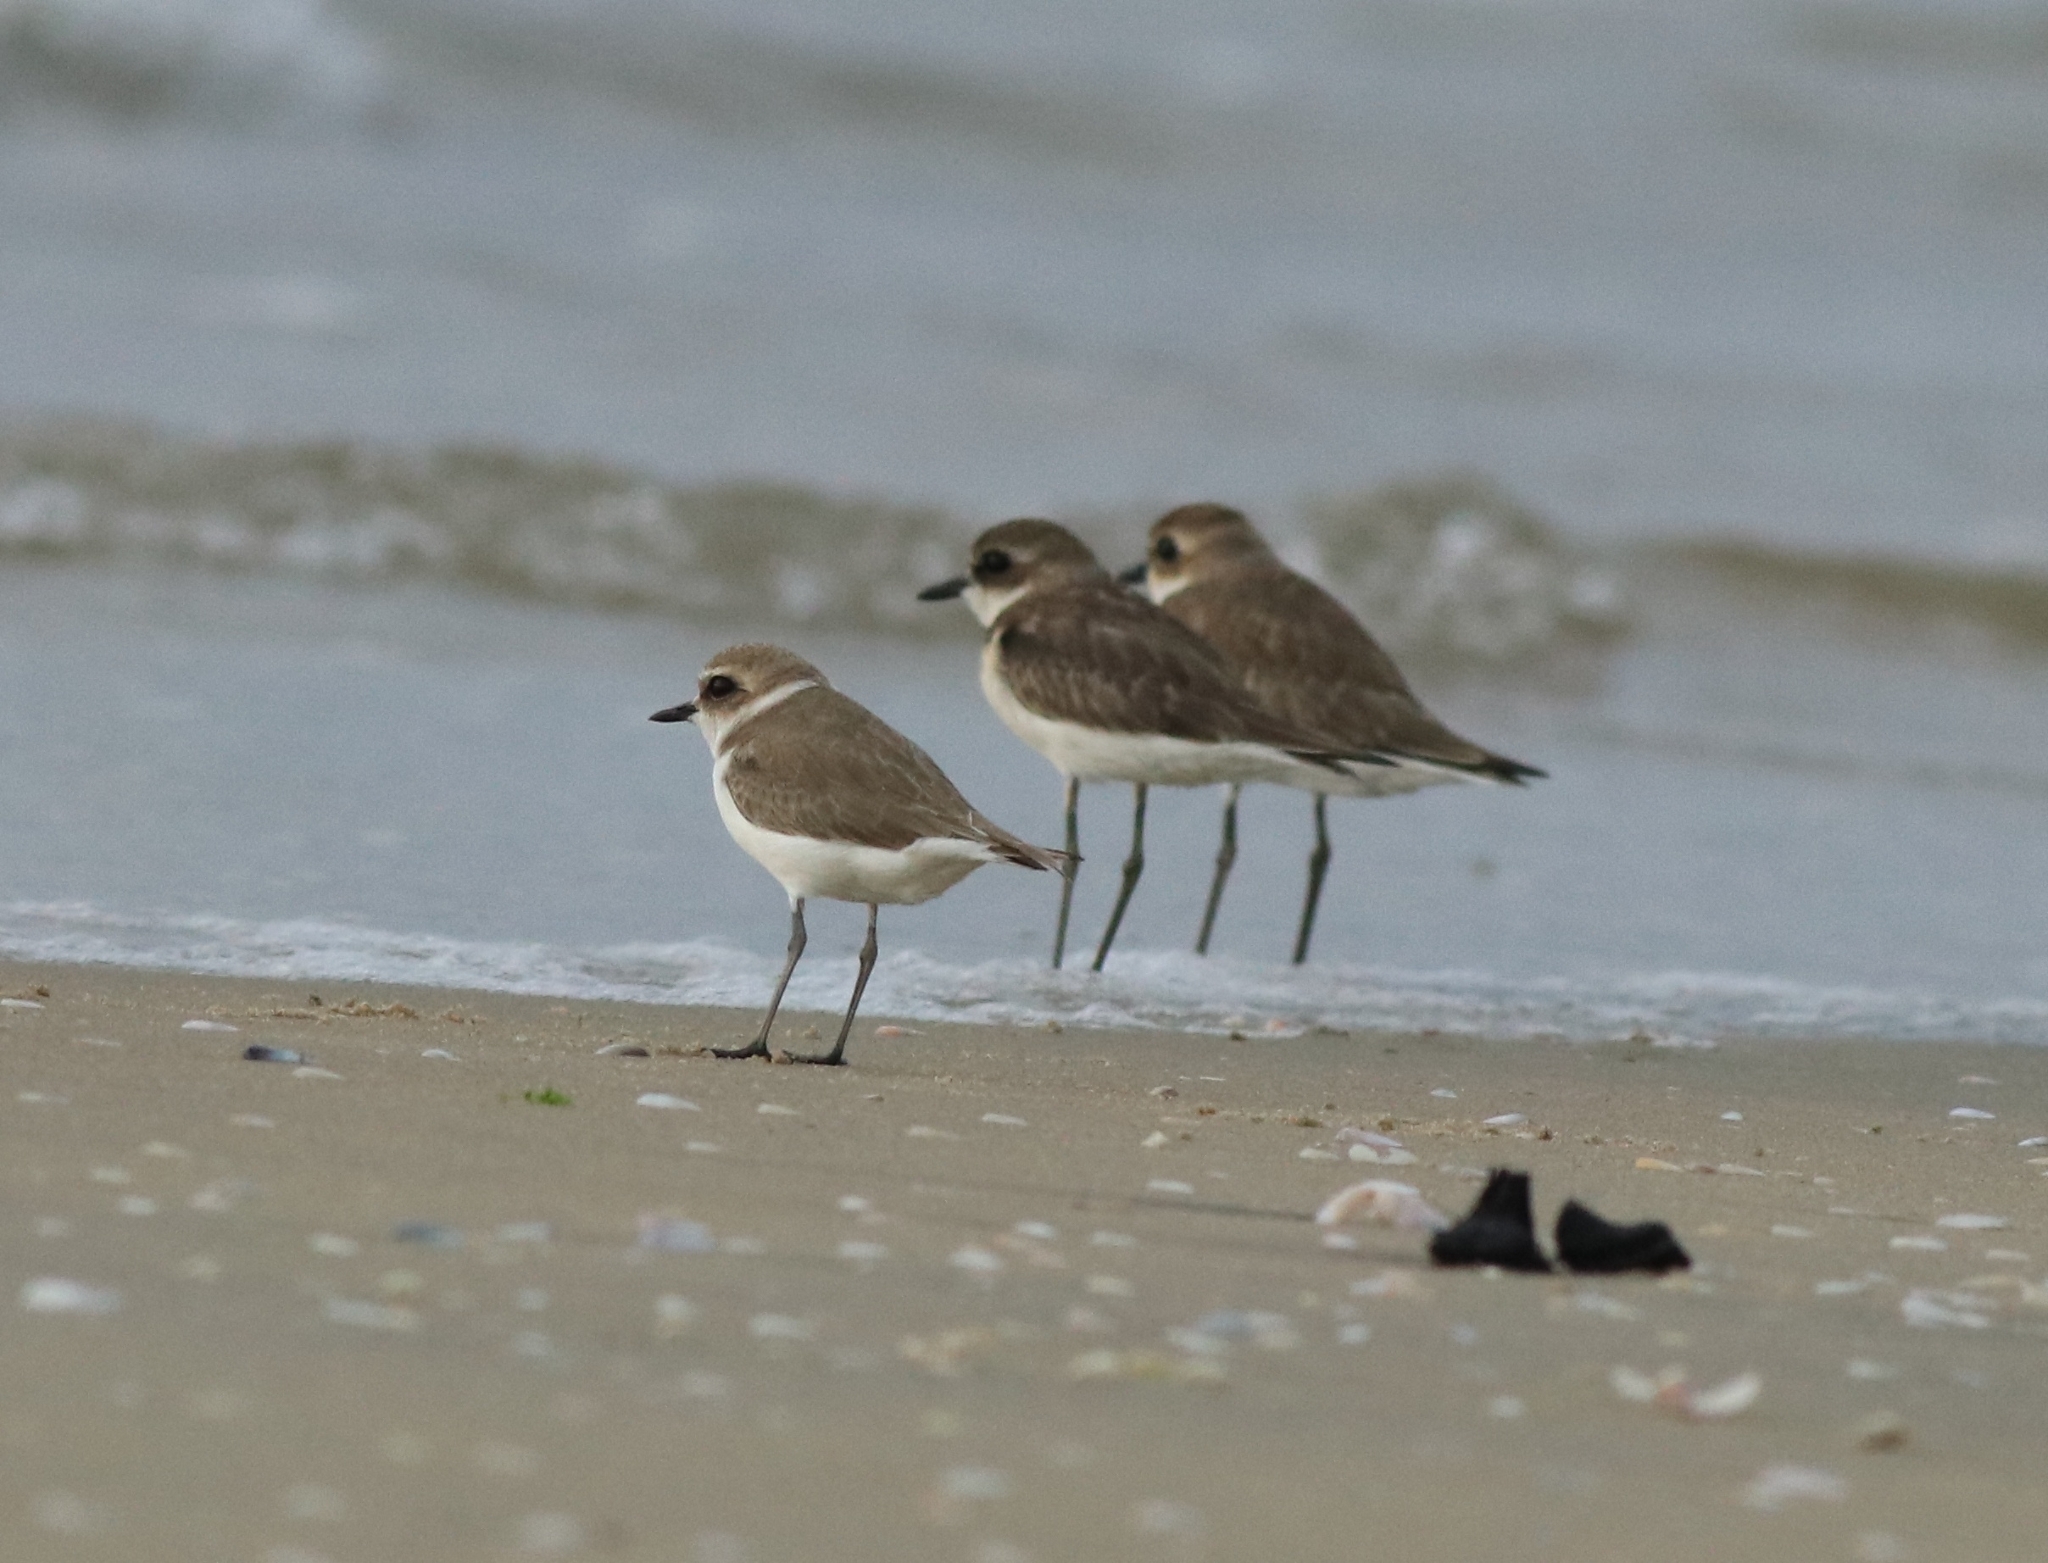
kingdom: Animalia
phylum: Chordata
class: Aves
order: Charadriiformes
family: Charadriidae
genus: Charadrius
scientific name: Charadrius alexandrinus
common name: Kentish plover
